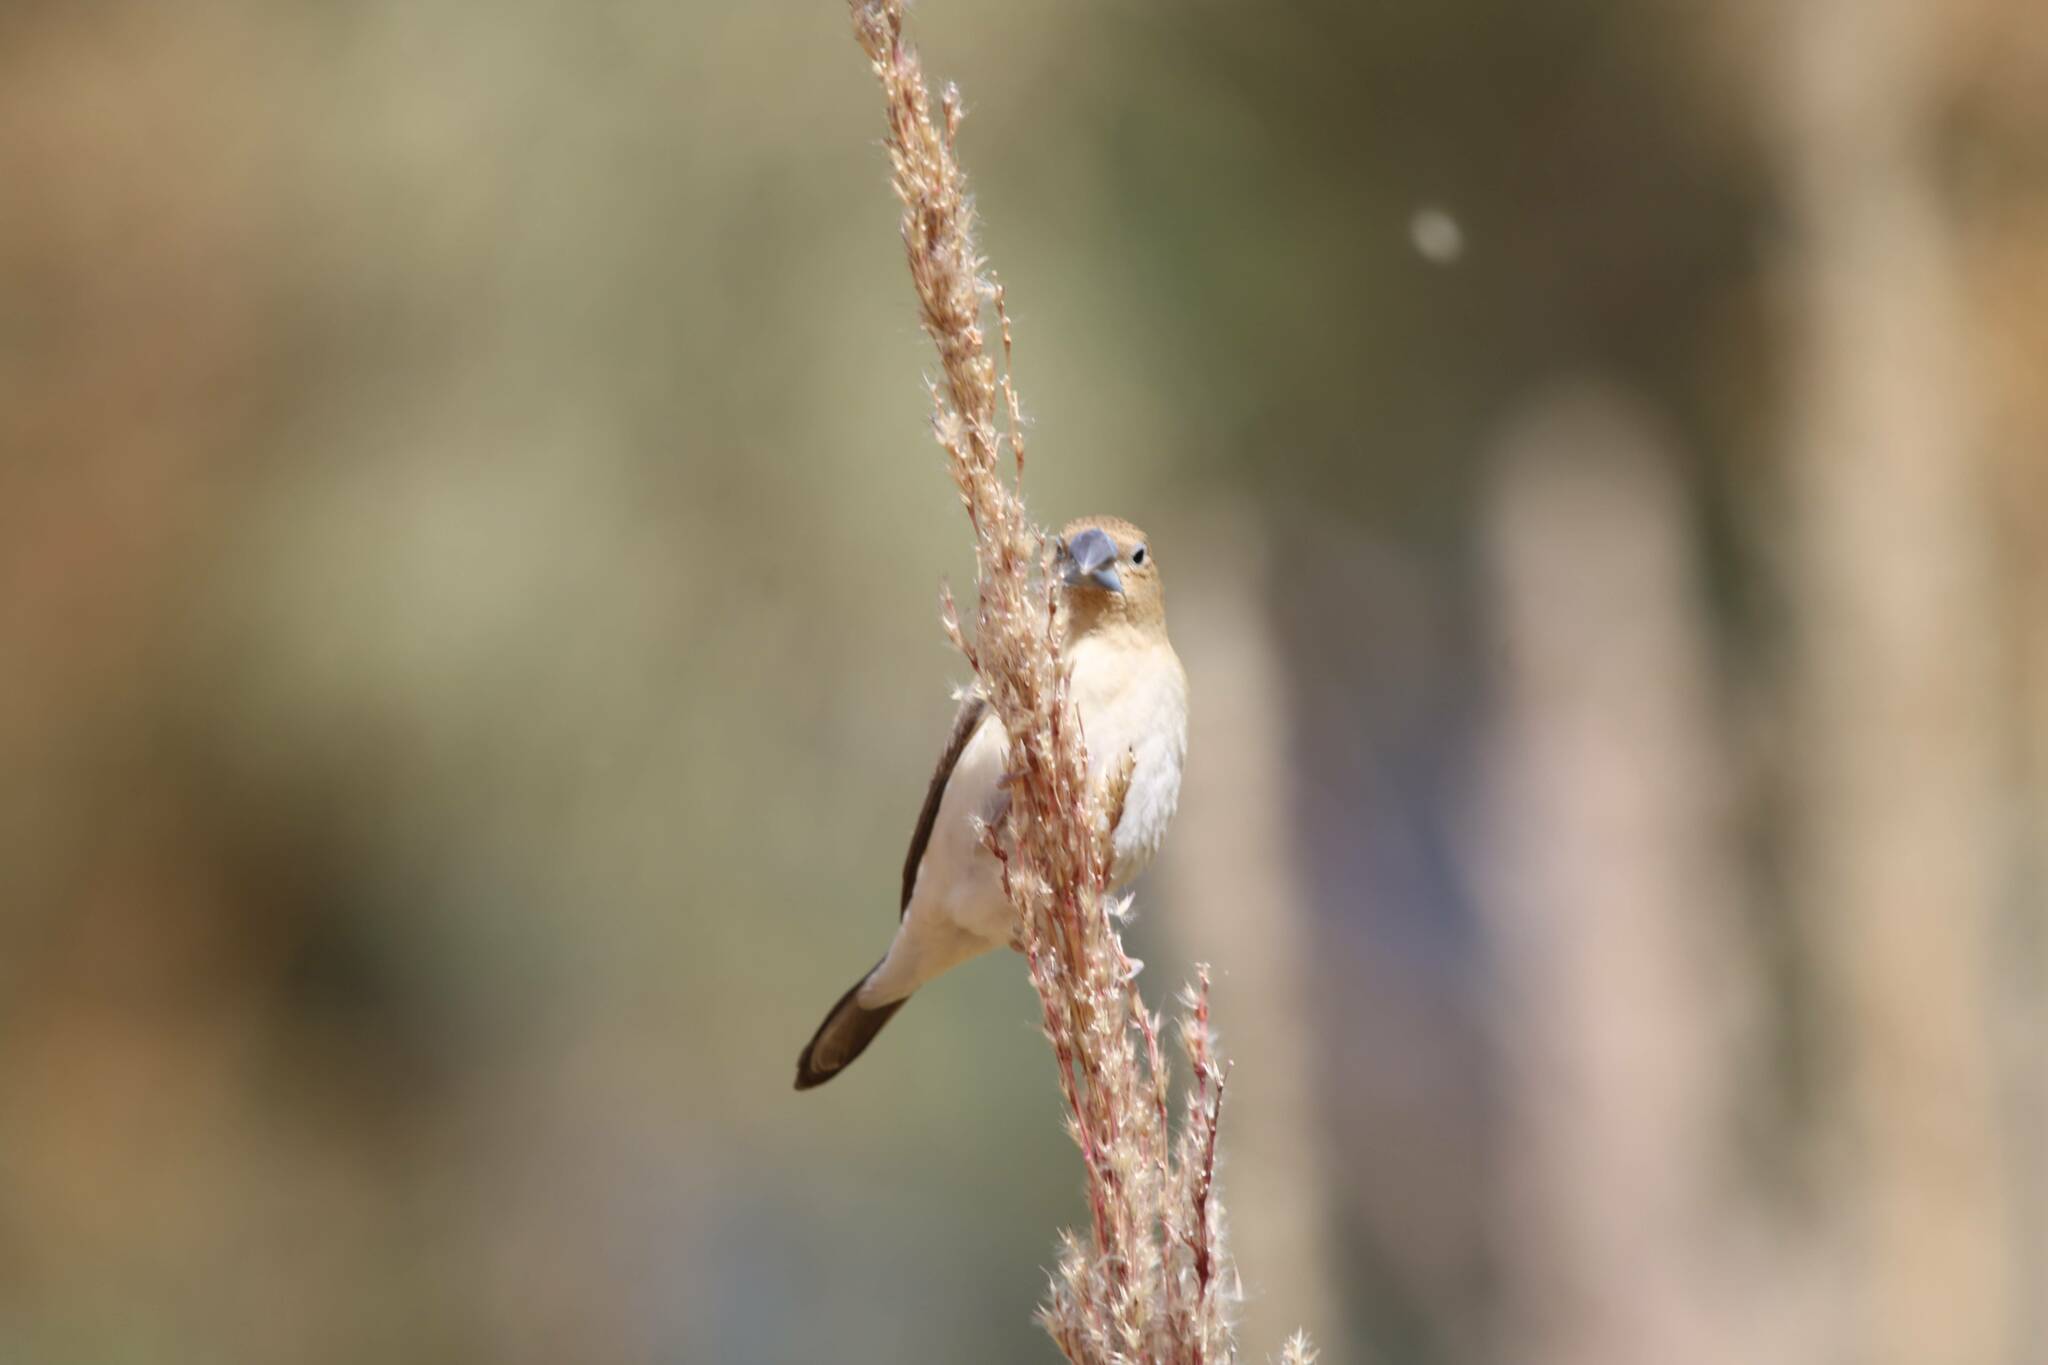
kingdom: Animalia
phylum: Chordata
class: Aves
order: Passeriformes
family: Estrildidae
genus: Euodice
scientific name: Euodice cantans
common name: African silverbill
